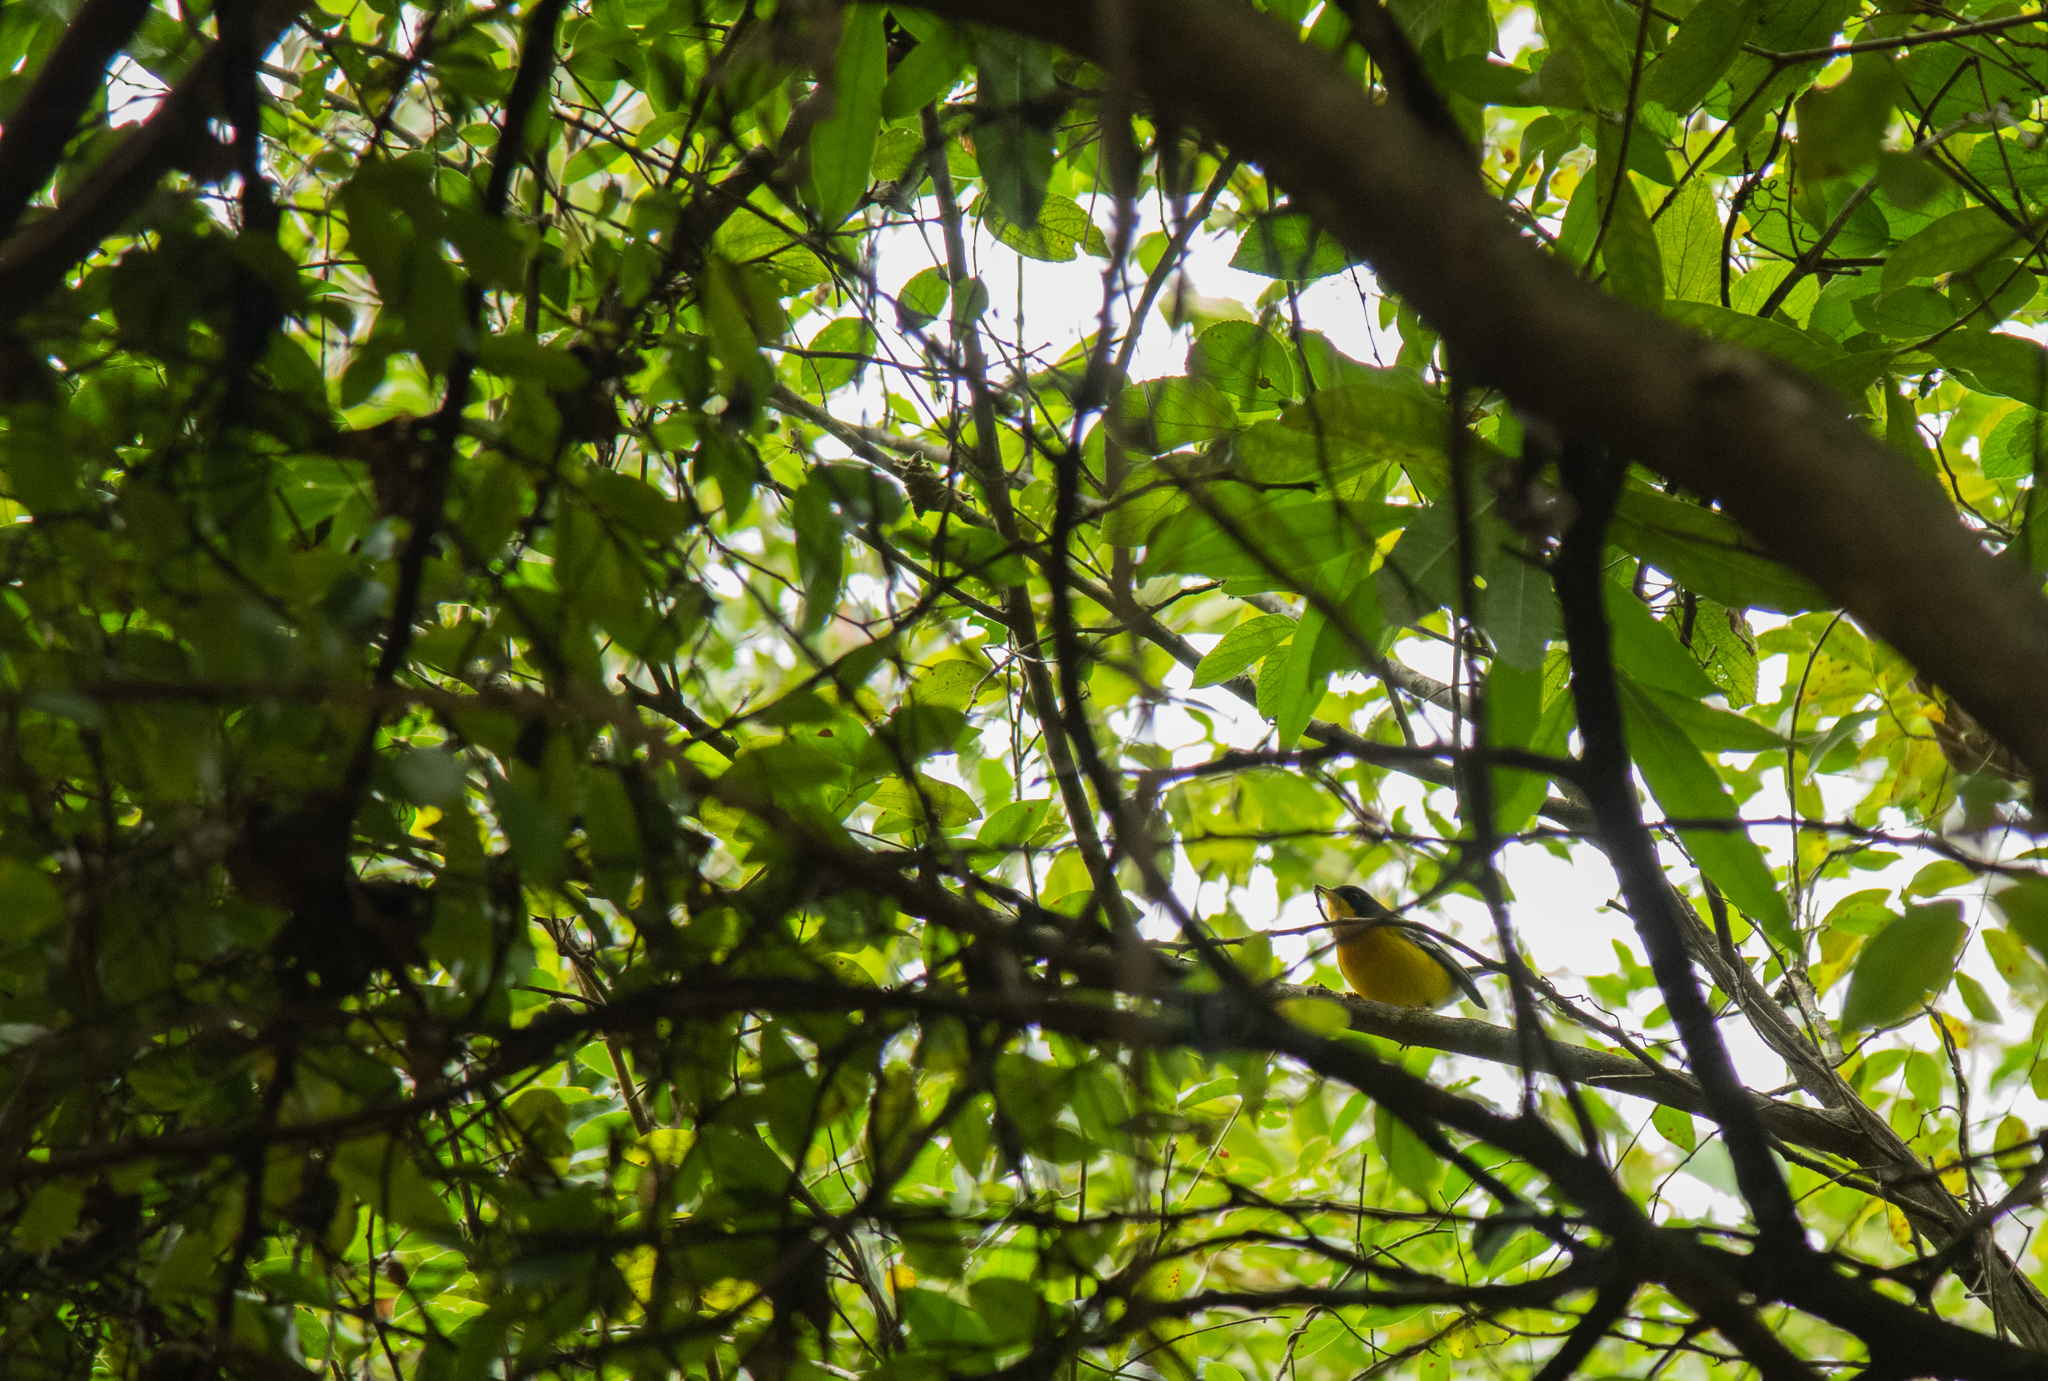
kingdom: Animalia
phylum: Chordata
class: Aves
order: Passeriformes
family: Parulidae
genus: Setophaga
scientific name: Setophaga pitiayumi
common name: Tropical parula
